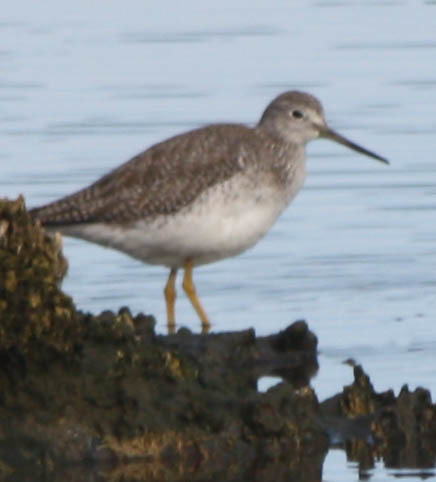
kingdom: Animalia
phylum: Chordata
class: Aves
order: Charadriiformes
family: Scolopacidae
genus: Tringa
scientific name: Tringa melanoleuca
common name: Greater yellowlegs
